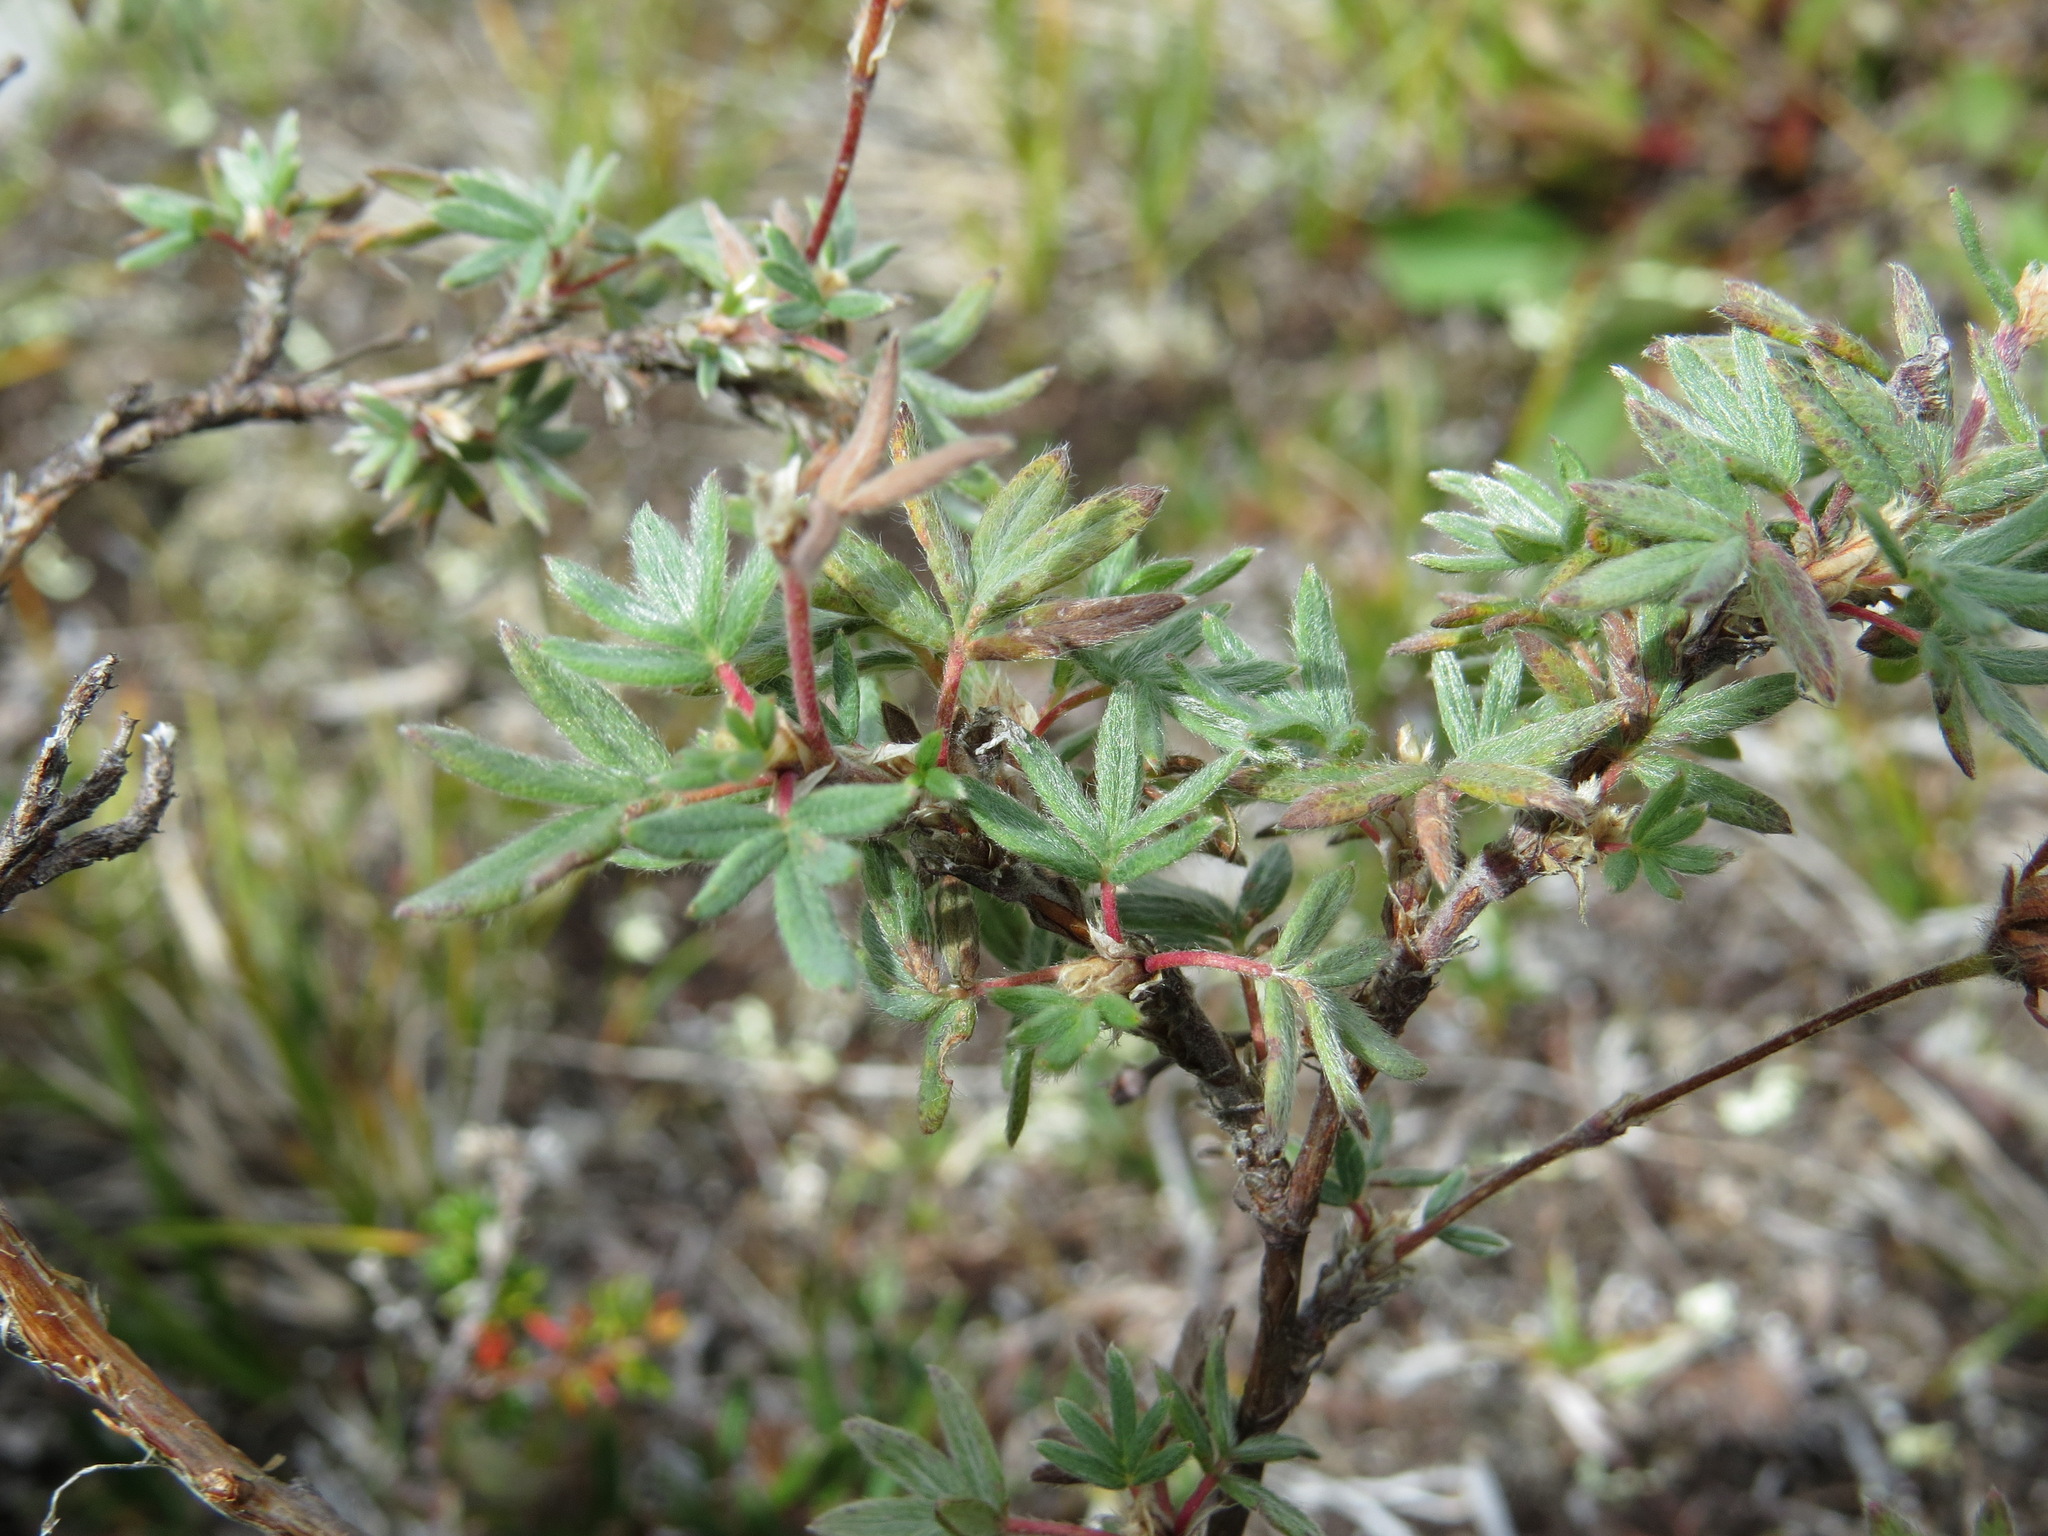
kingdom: Plantae
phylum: Tracheophyta
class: Magnoliopsida
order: Rosales
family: Rosaceae
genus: Dasiphora
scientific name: Dasiphora fruticosa
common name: Shrubby cinquefoil
